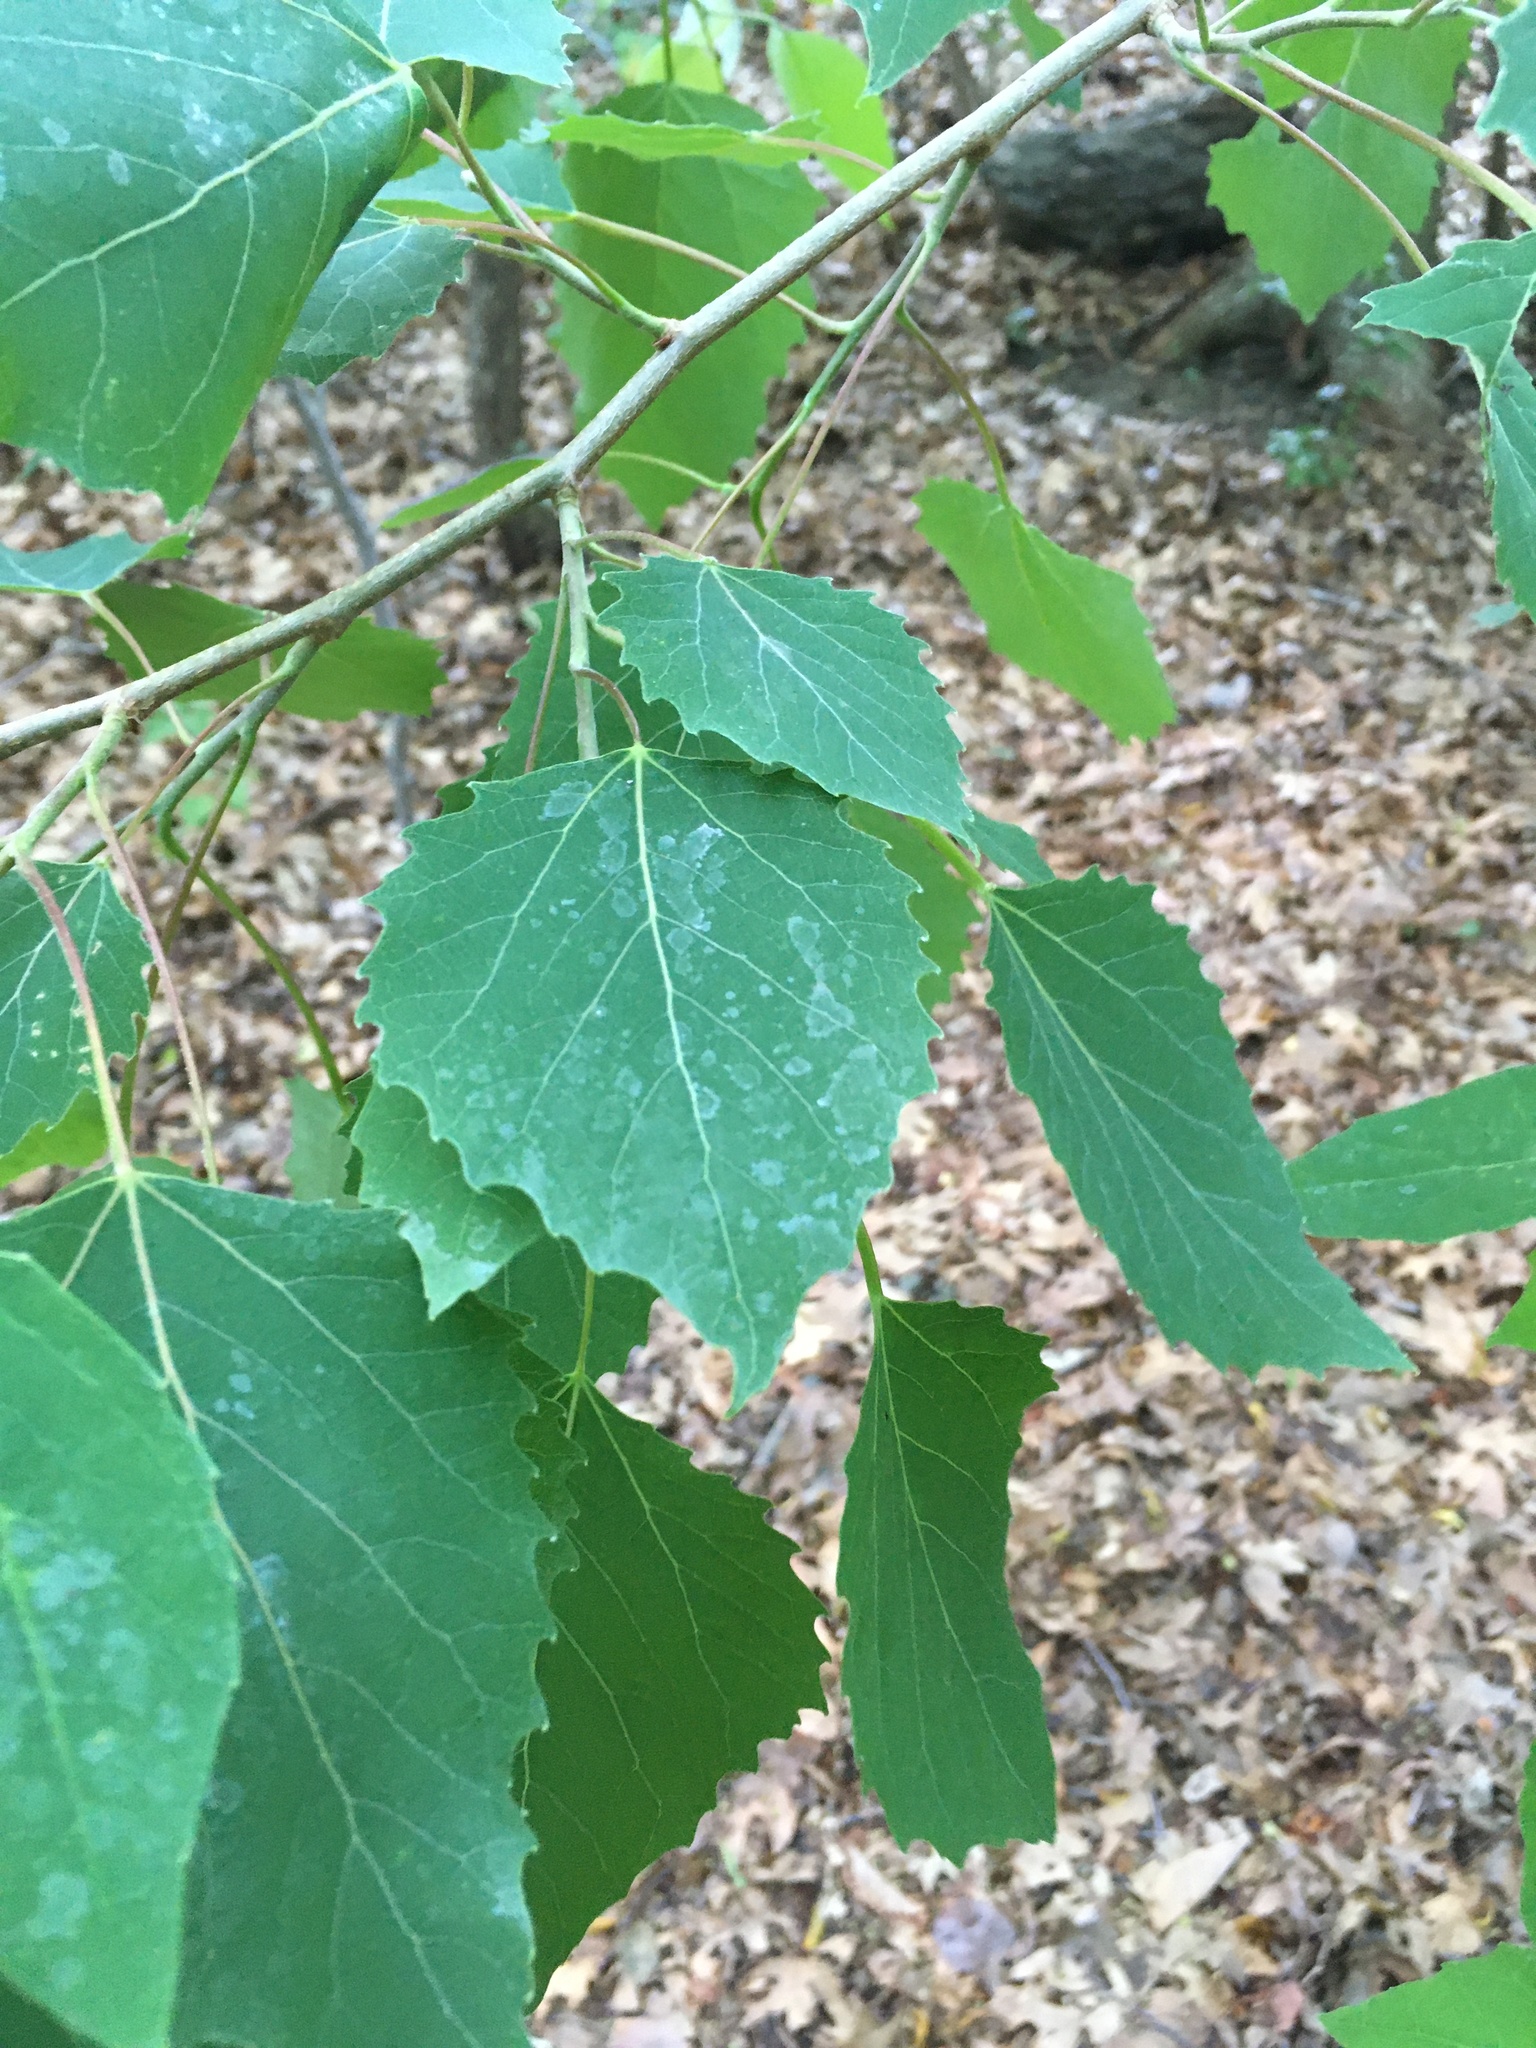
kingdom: Plantae
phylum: Tracheophyta
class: Magnoliopsida
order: Malpighiales
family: Salicaceae
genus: Populus
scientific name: Populus grandidentata
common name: Bigtooth aspen
